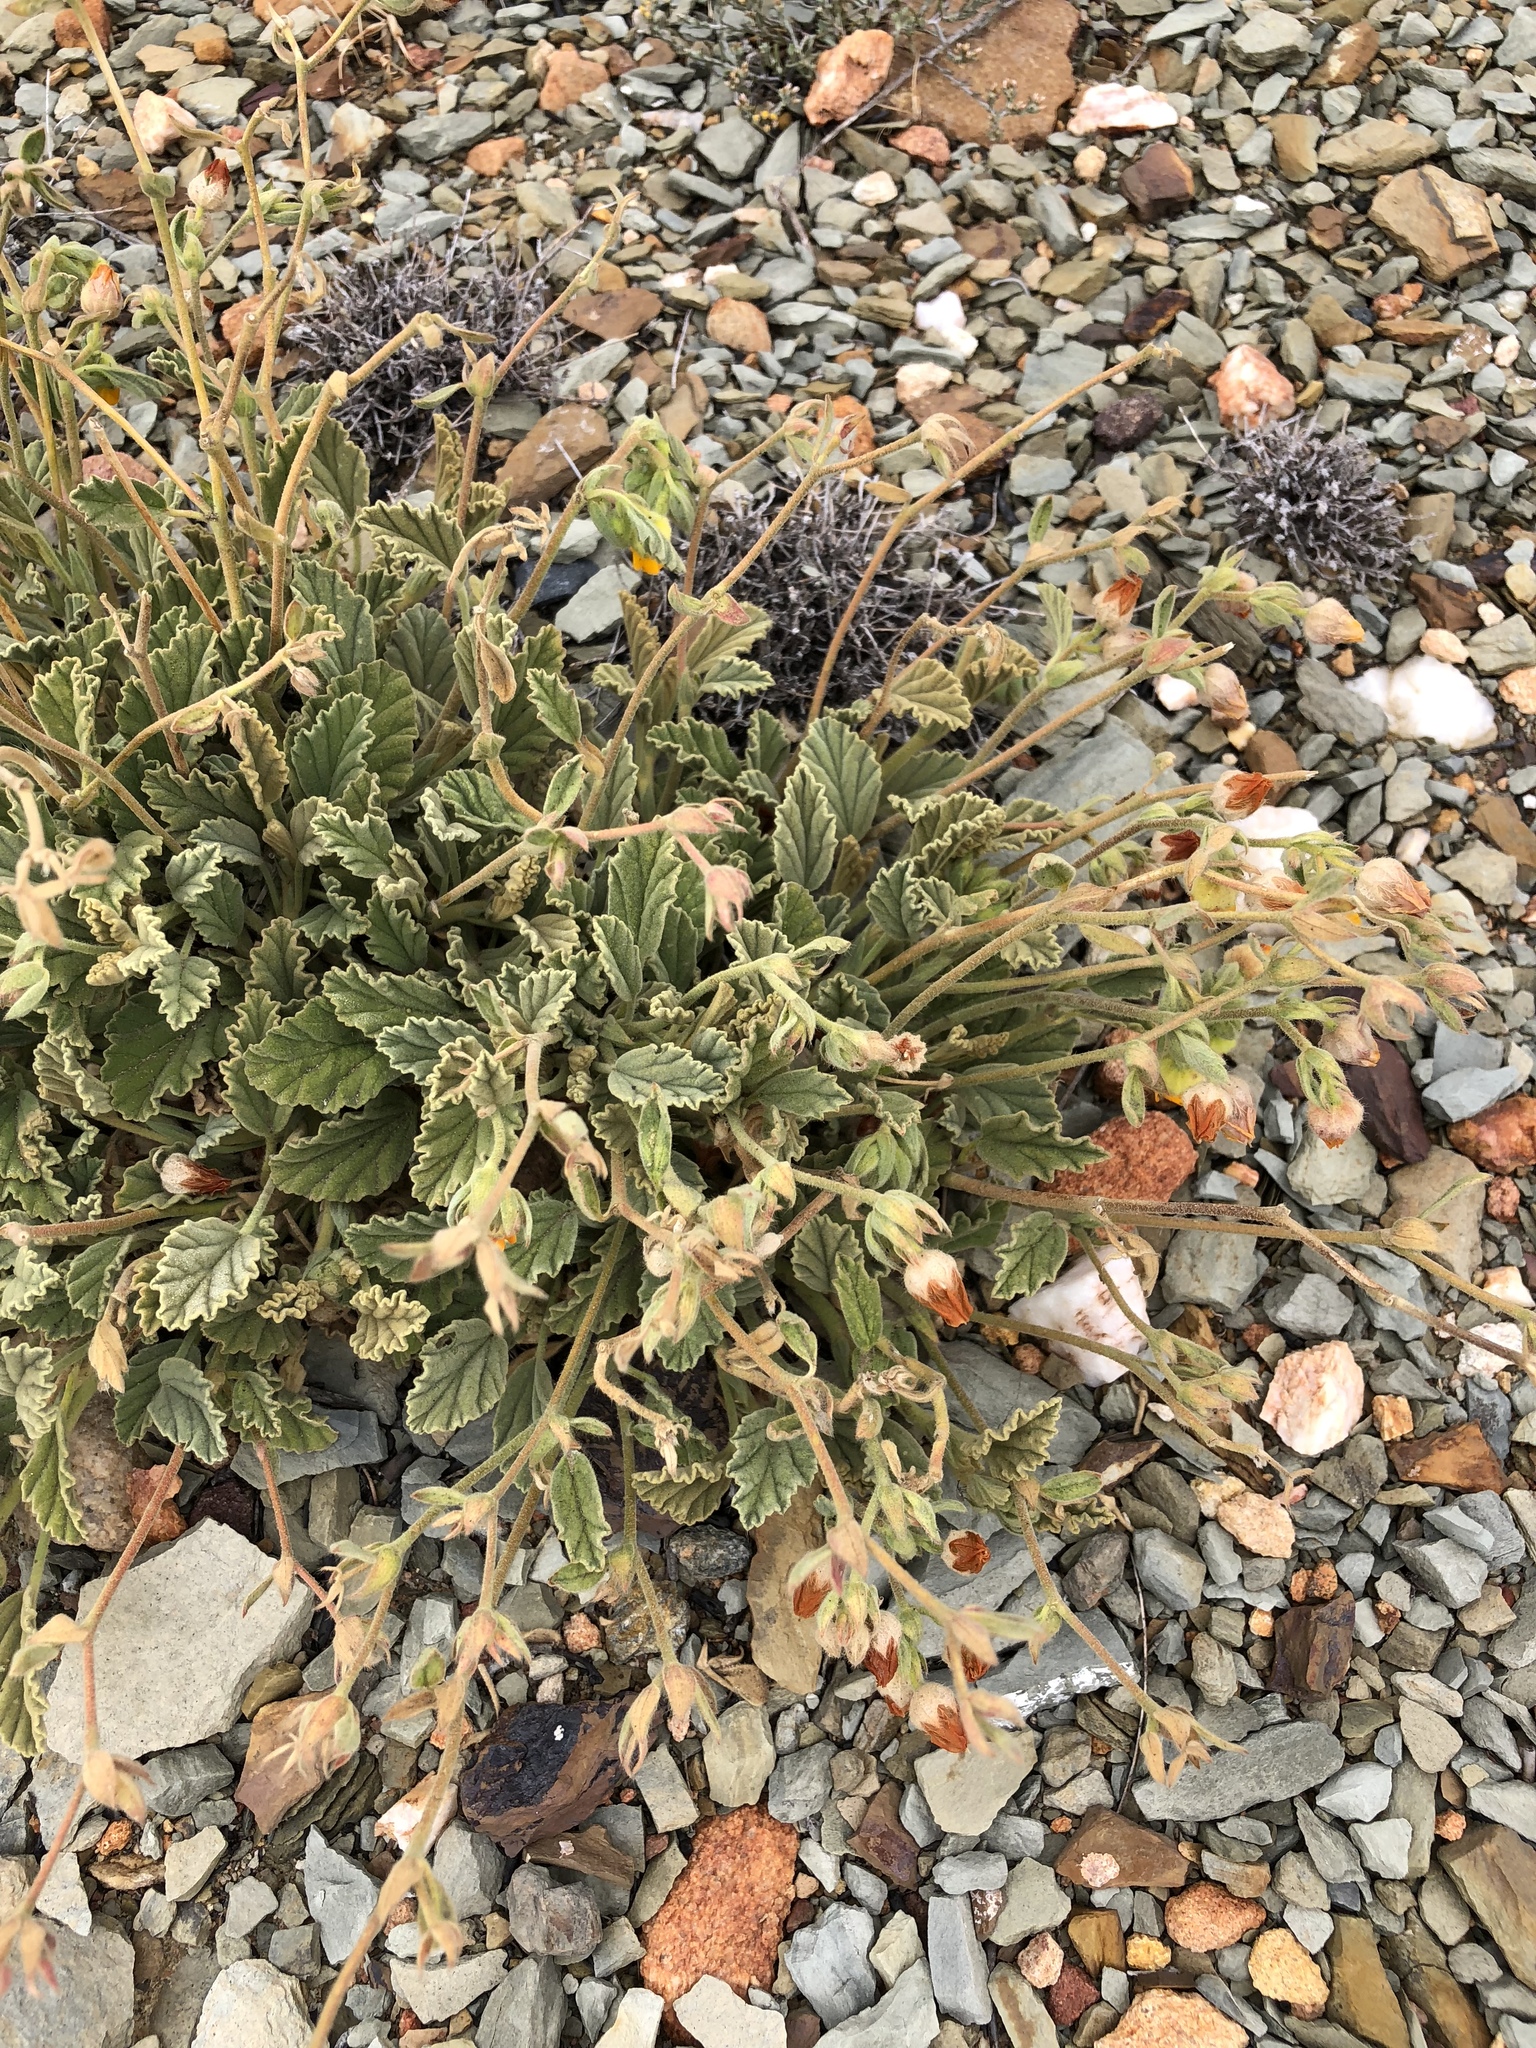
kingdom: Plantae
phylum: Tracheophyta
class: Magnoliopsida
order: Malvales
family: Malvaceae
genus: Hermannia
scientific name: Hermannia althaeifolia
